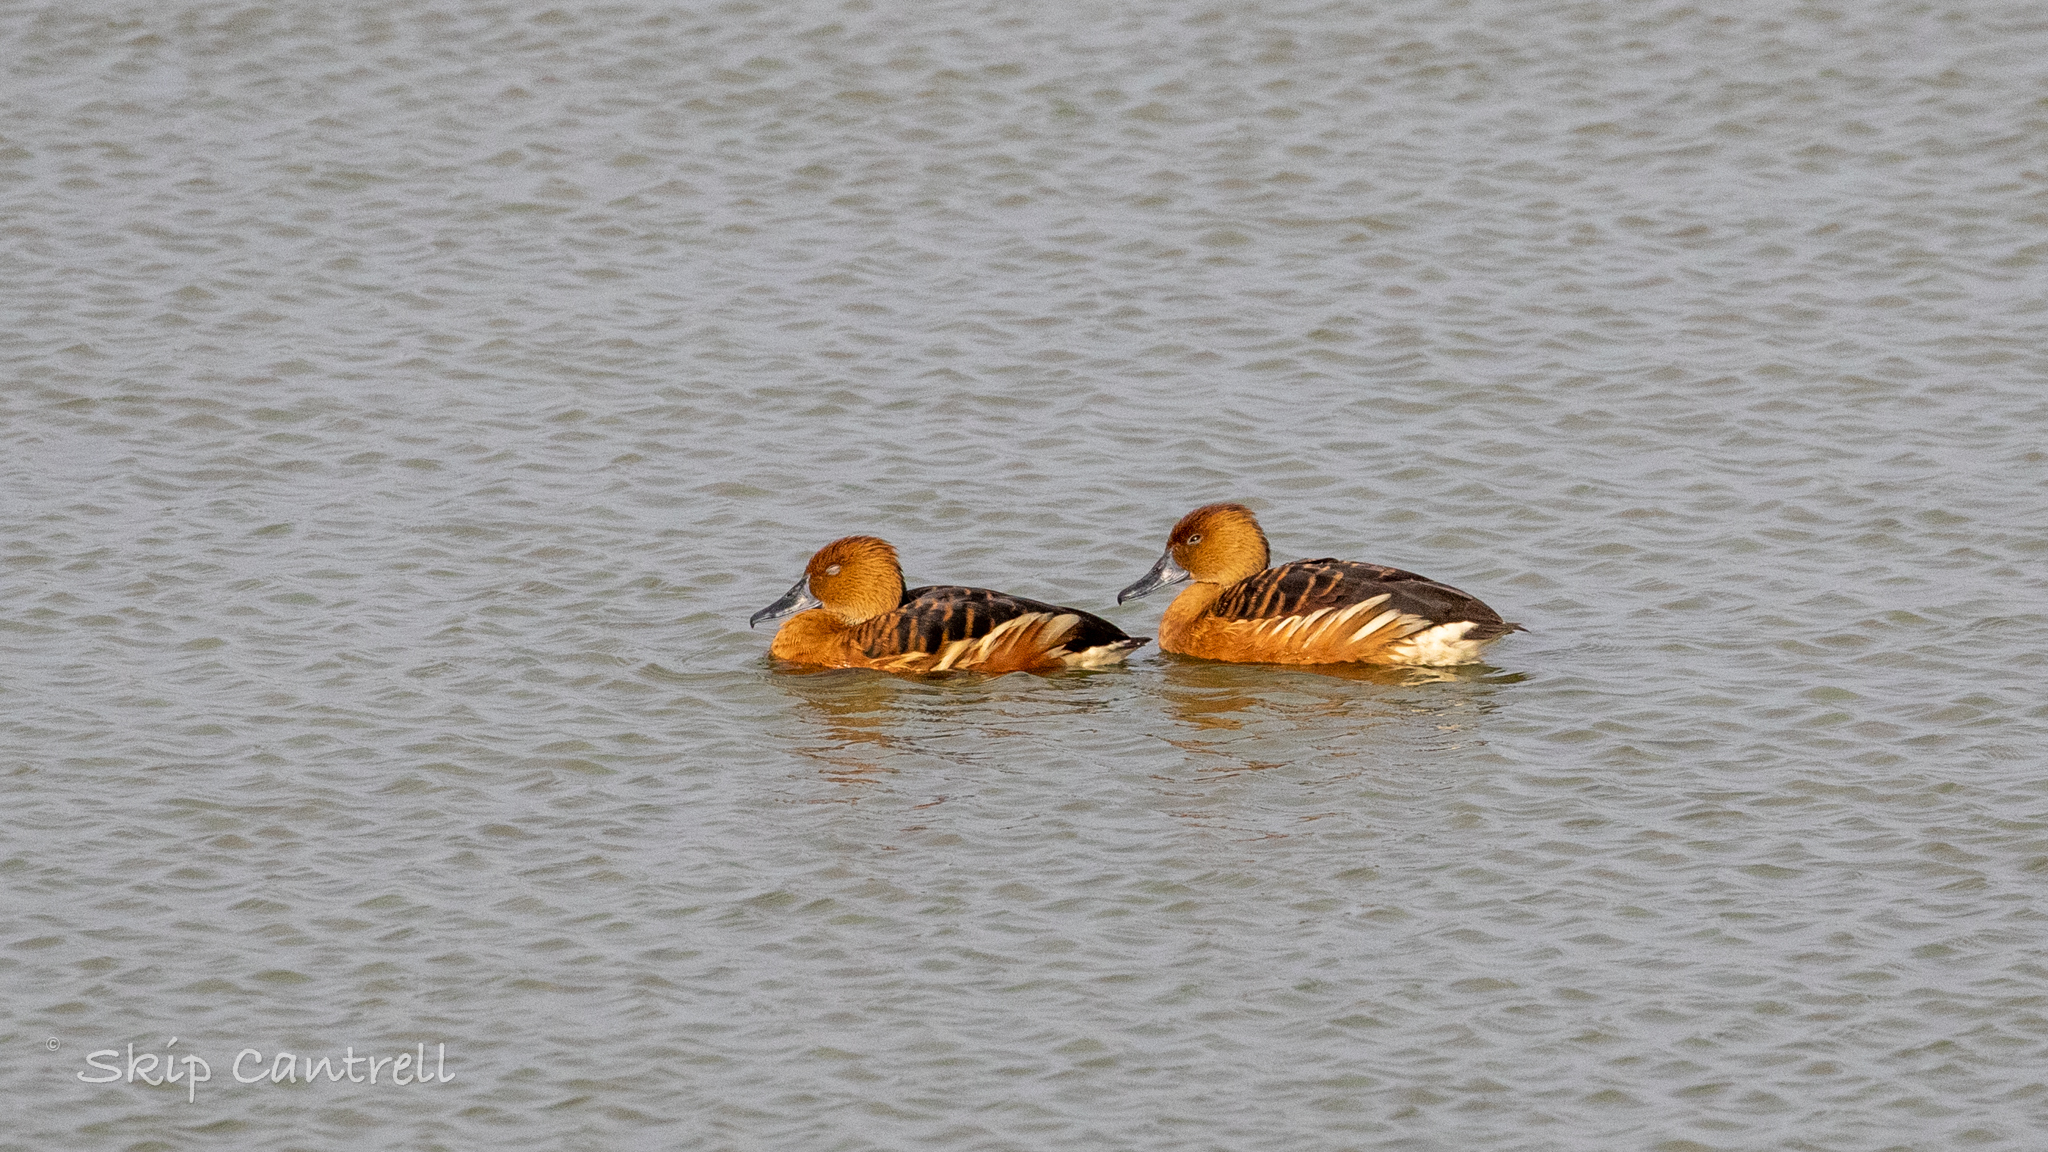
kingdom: Animalia
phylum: Chordata
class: Aves
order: Anseriformes
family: Anatidae
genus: Dendrocygna
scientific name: Dendrocygna bicolor
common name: Fulvous whistling duck
